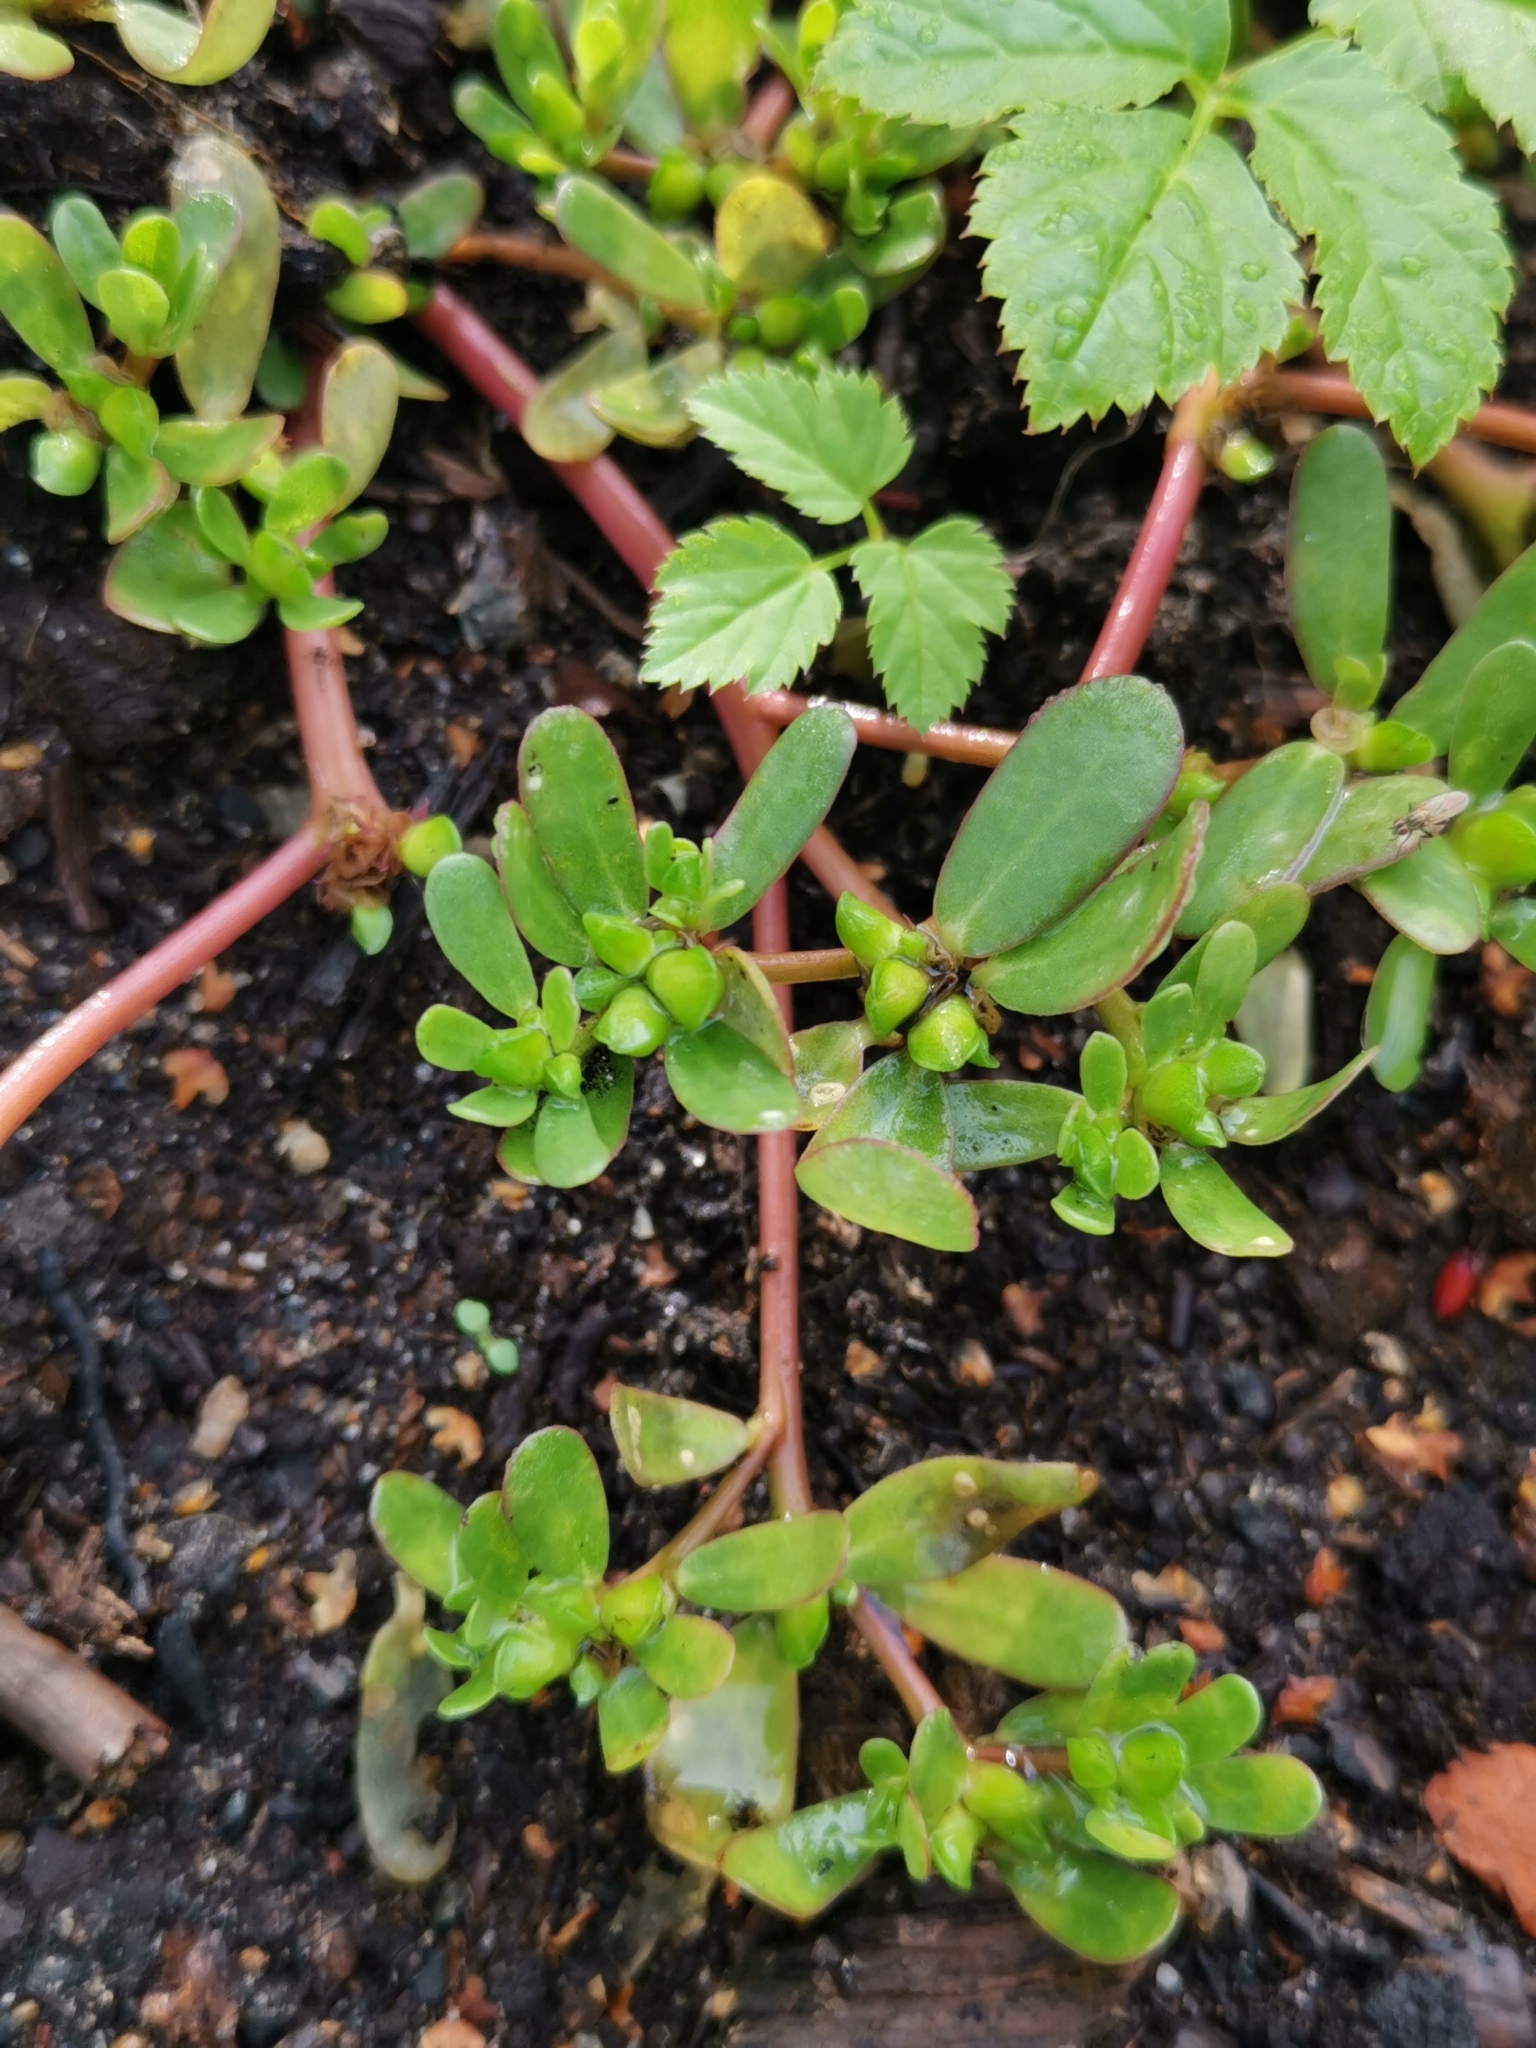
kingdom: Plantae
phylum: Tracheophyta
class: Magnoliopsida
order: Caryophyllales
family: Portulacaceae
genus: Portulaca
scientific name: Portulaca oleracea
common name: Common purslane
